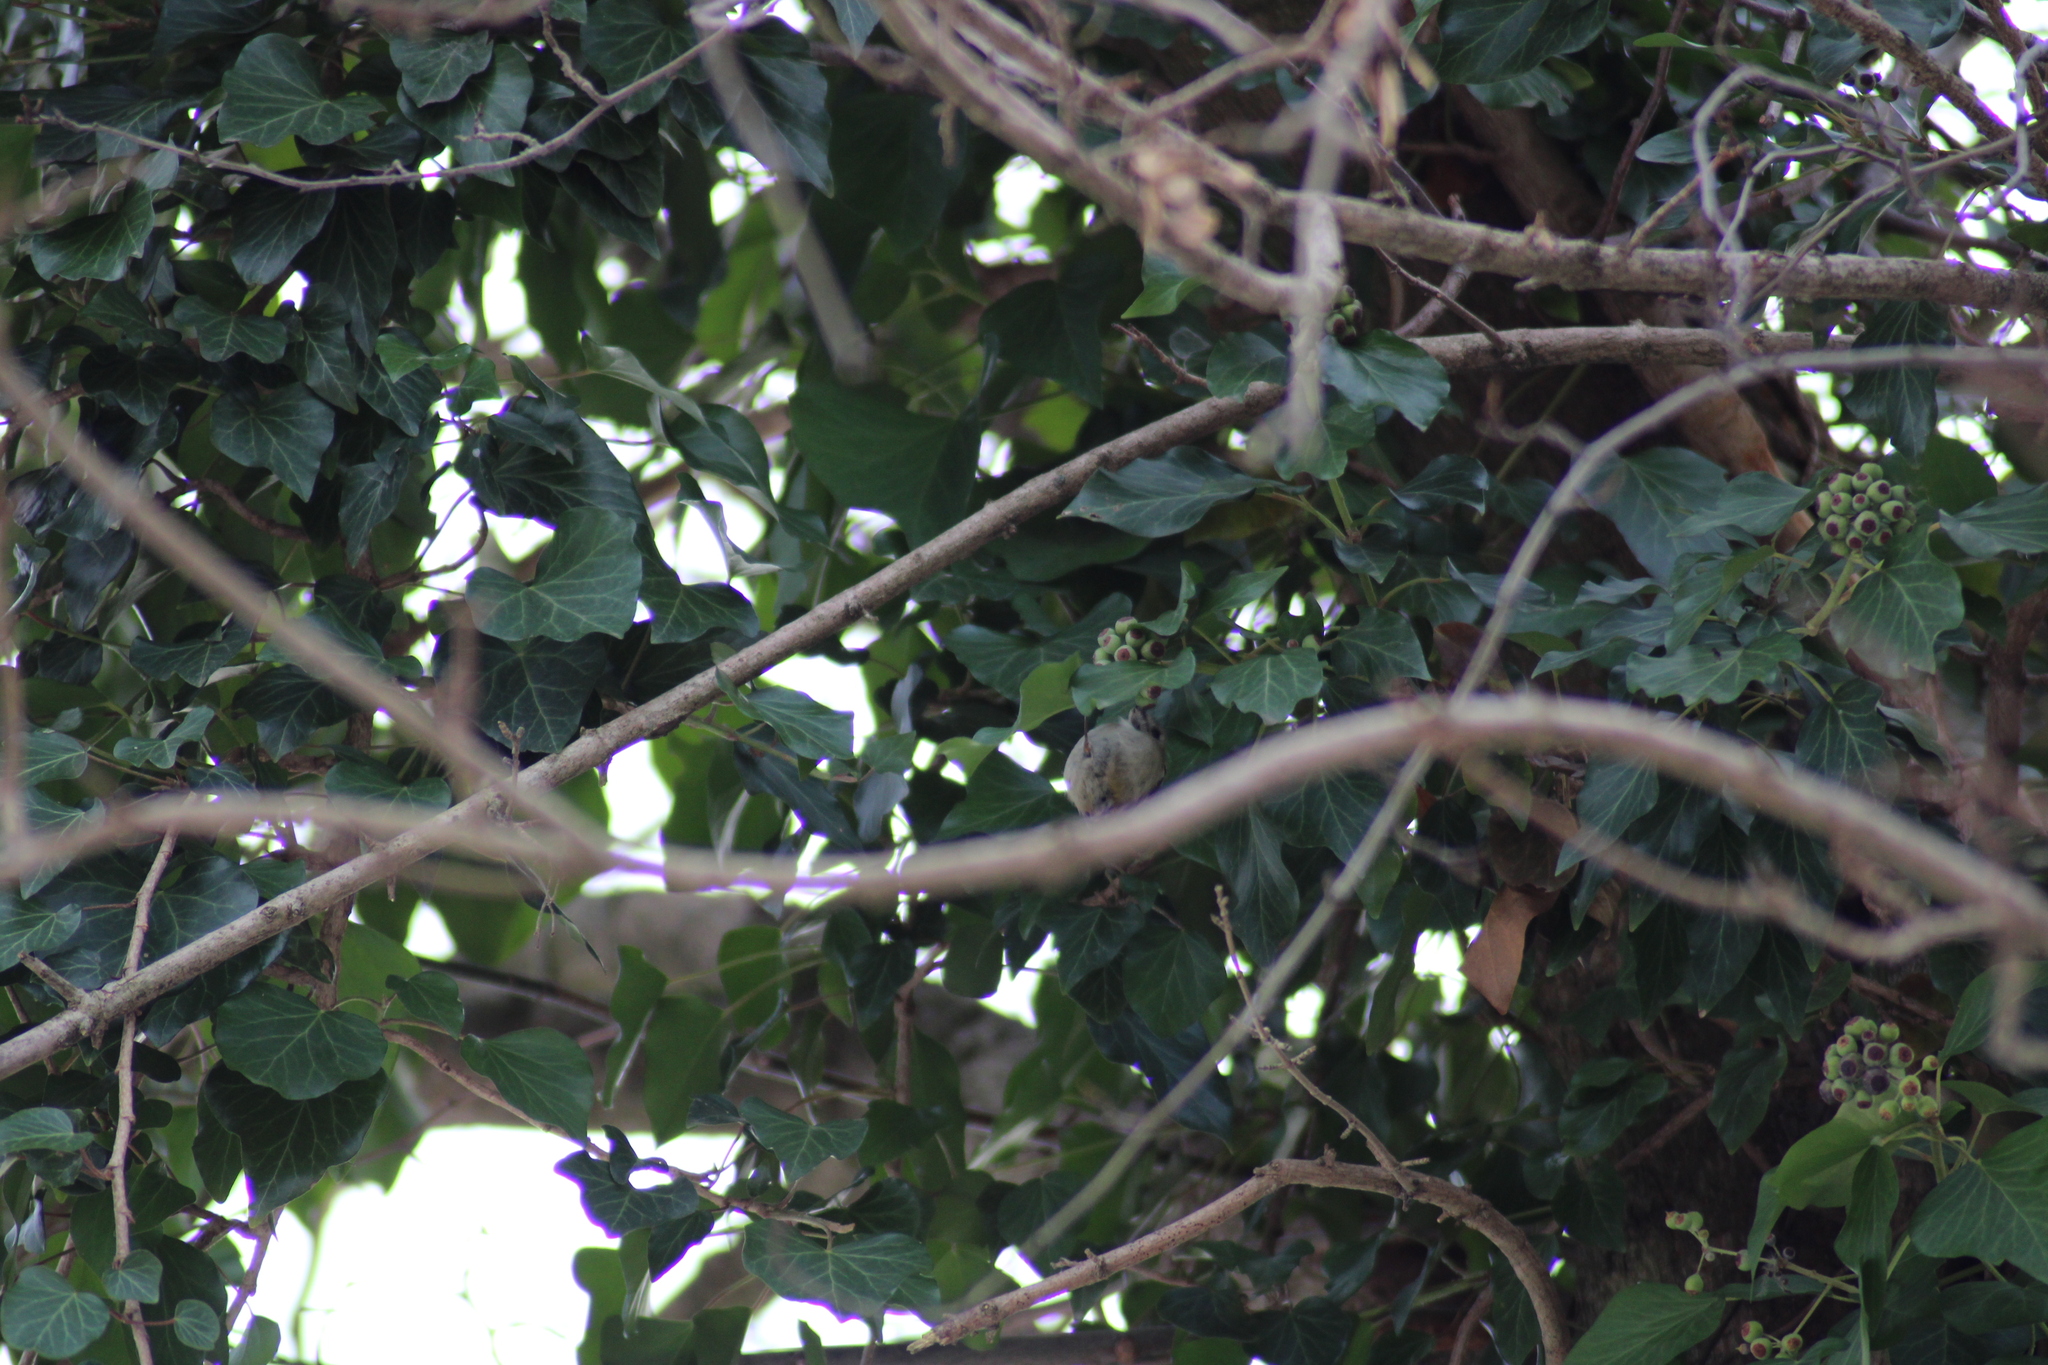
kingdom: Animalia
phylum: Chordata
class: Aves
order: Passeriformes
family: Regulidae
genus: Regulus
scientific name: Regulus regulus
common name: Goldcrest
